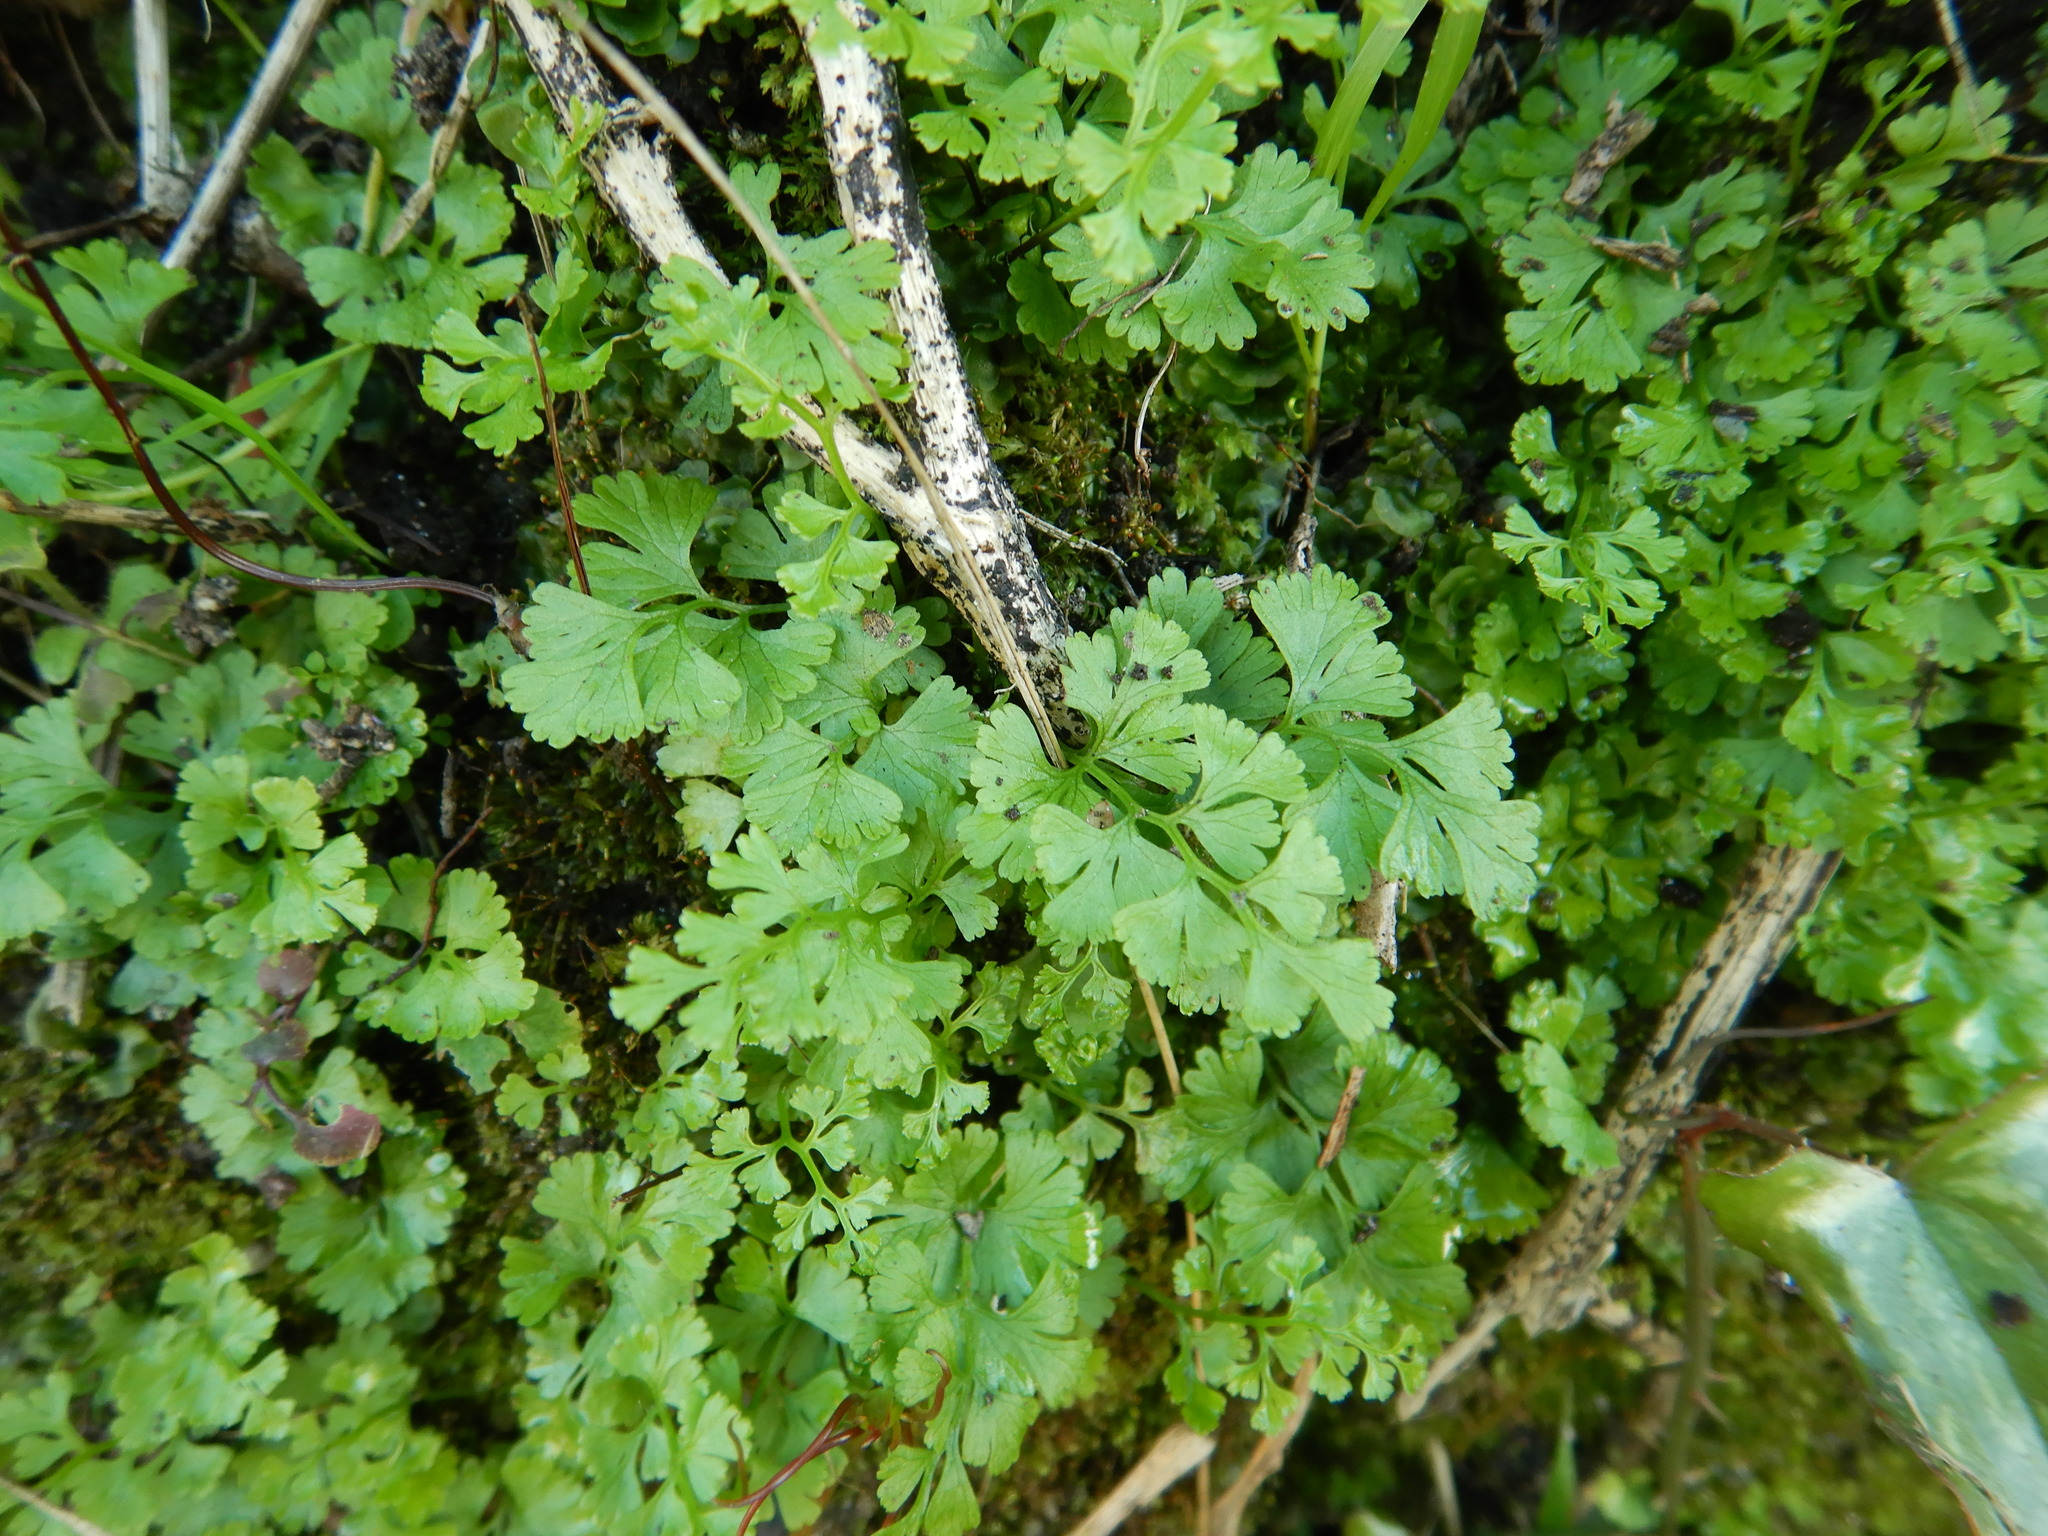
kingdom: Plantae
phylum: Tracheophyta
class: Polypodiopsida
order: Polypodiales
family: Pteridaceae
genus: Anogramma
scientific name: Anogramma leptophylla
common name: Jersey fern
